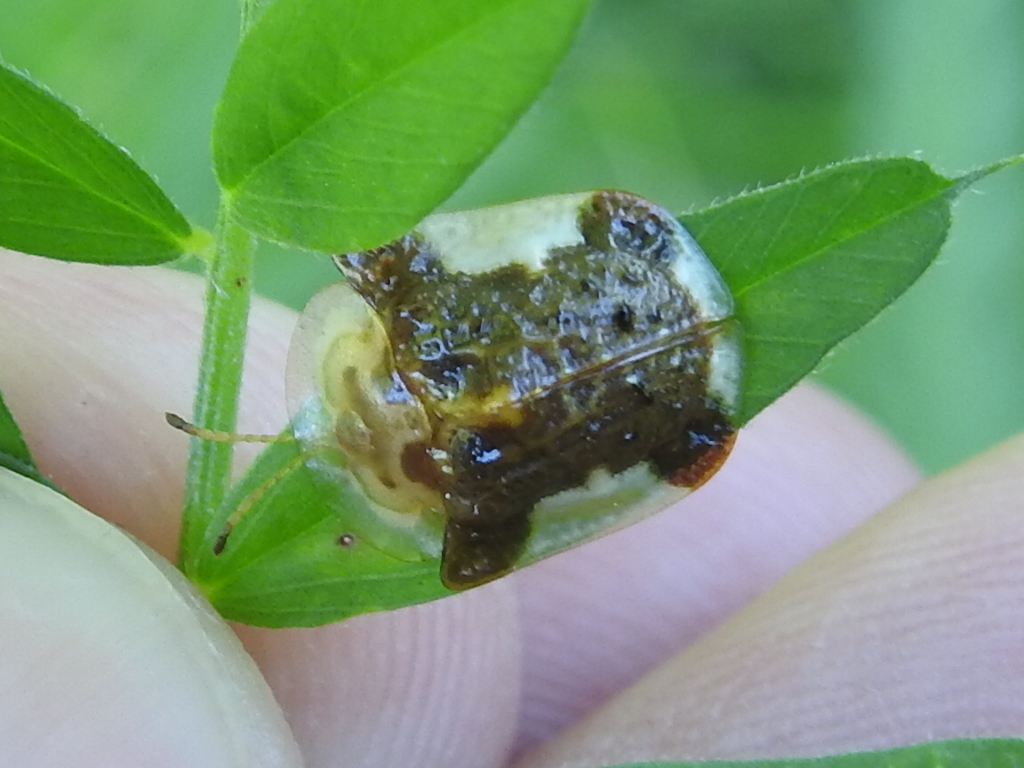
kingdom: Animalia
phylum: Arthropoda
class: Insecta
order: Coleoptera
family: Chrysomelidae
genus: Helocassis
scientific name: Helocassis clavata
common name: Clavate tortoise beetle
